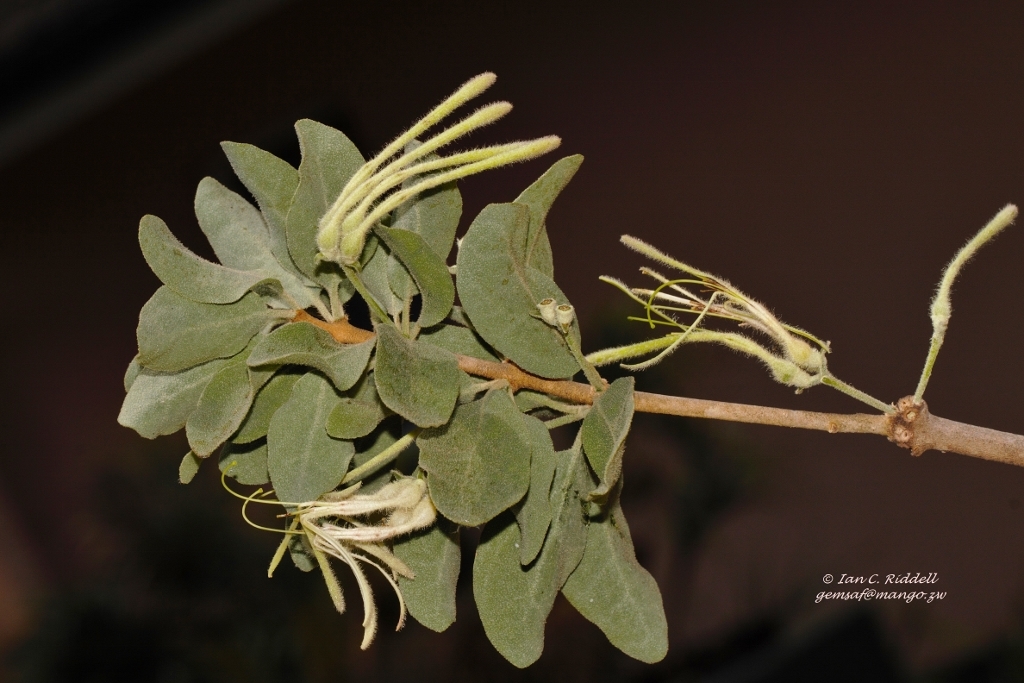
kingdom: Plantae
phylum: Tracheophyta
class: Magnoliopsida
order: Santalales
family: Loranthaceae
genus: Erianthemum
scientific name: Erianthemum virescens
